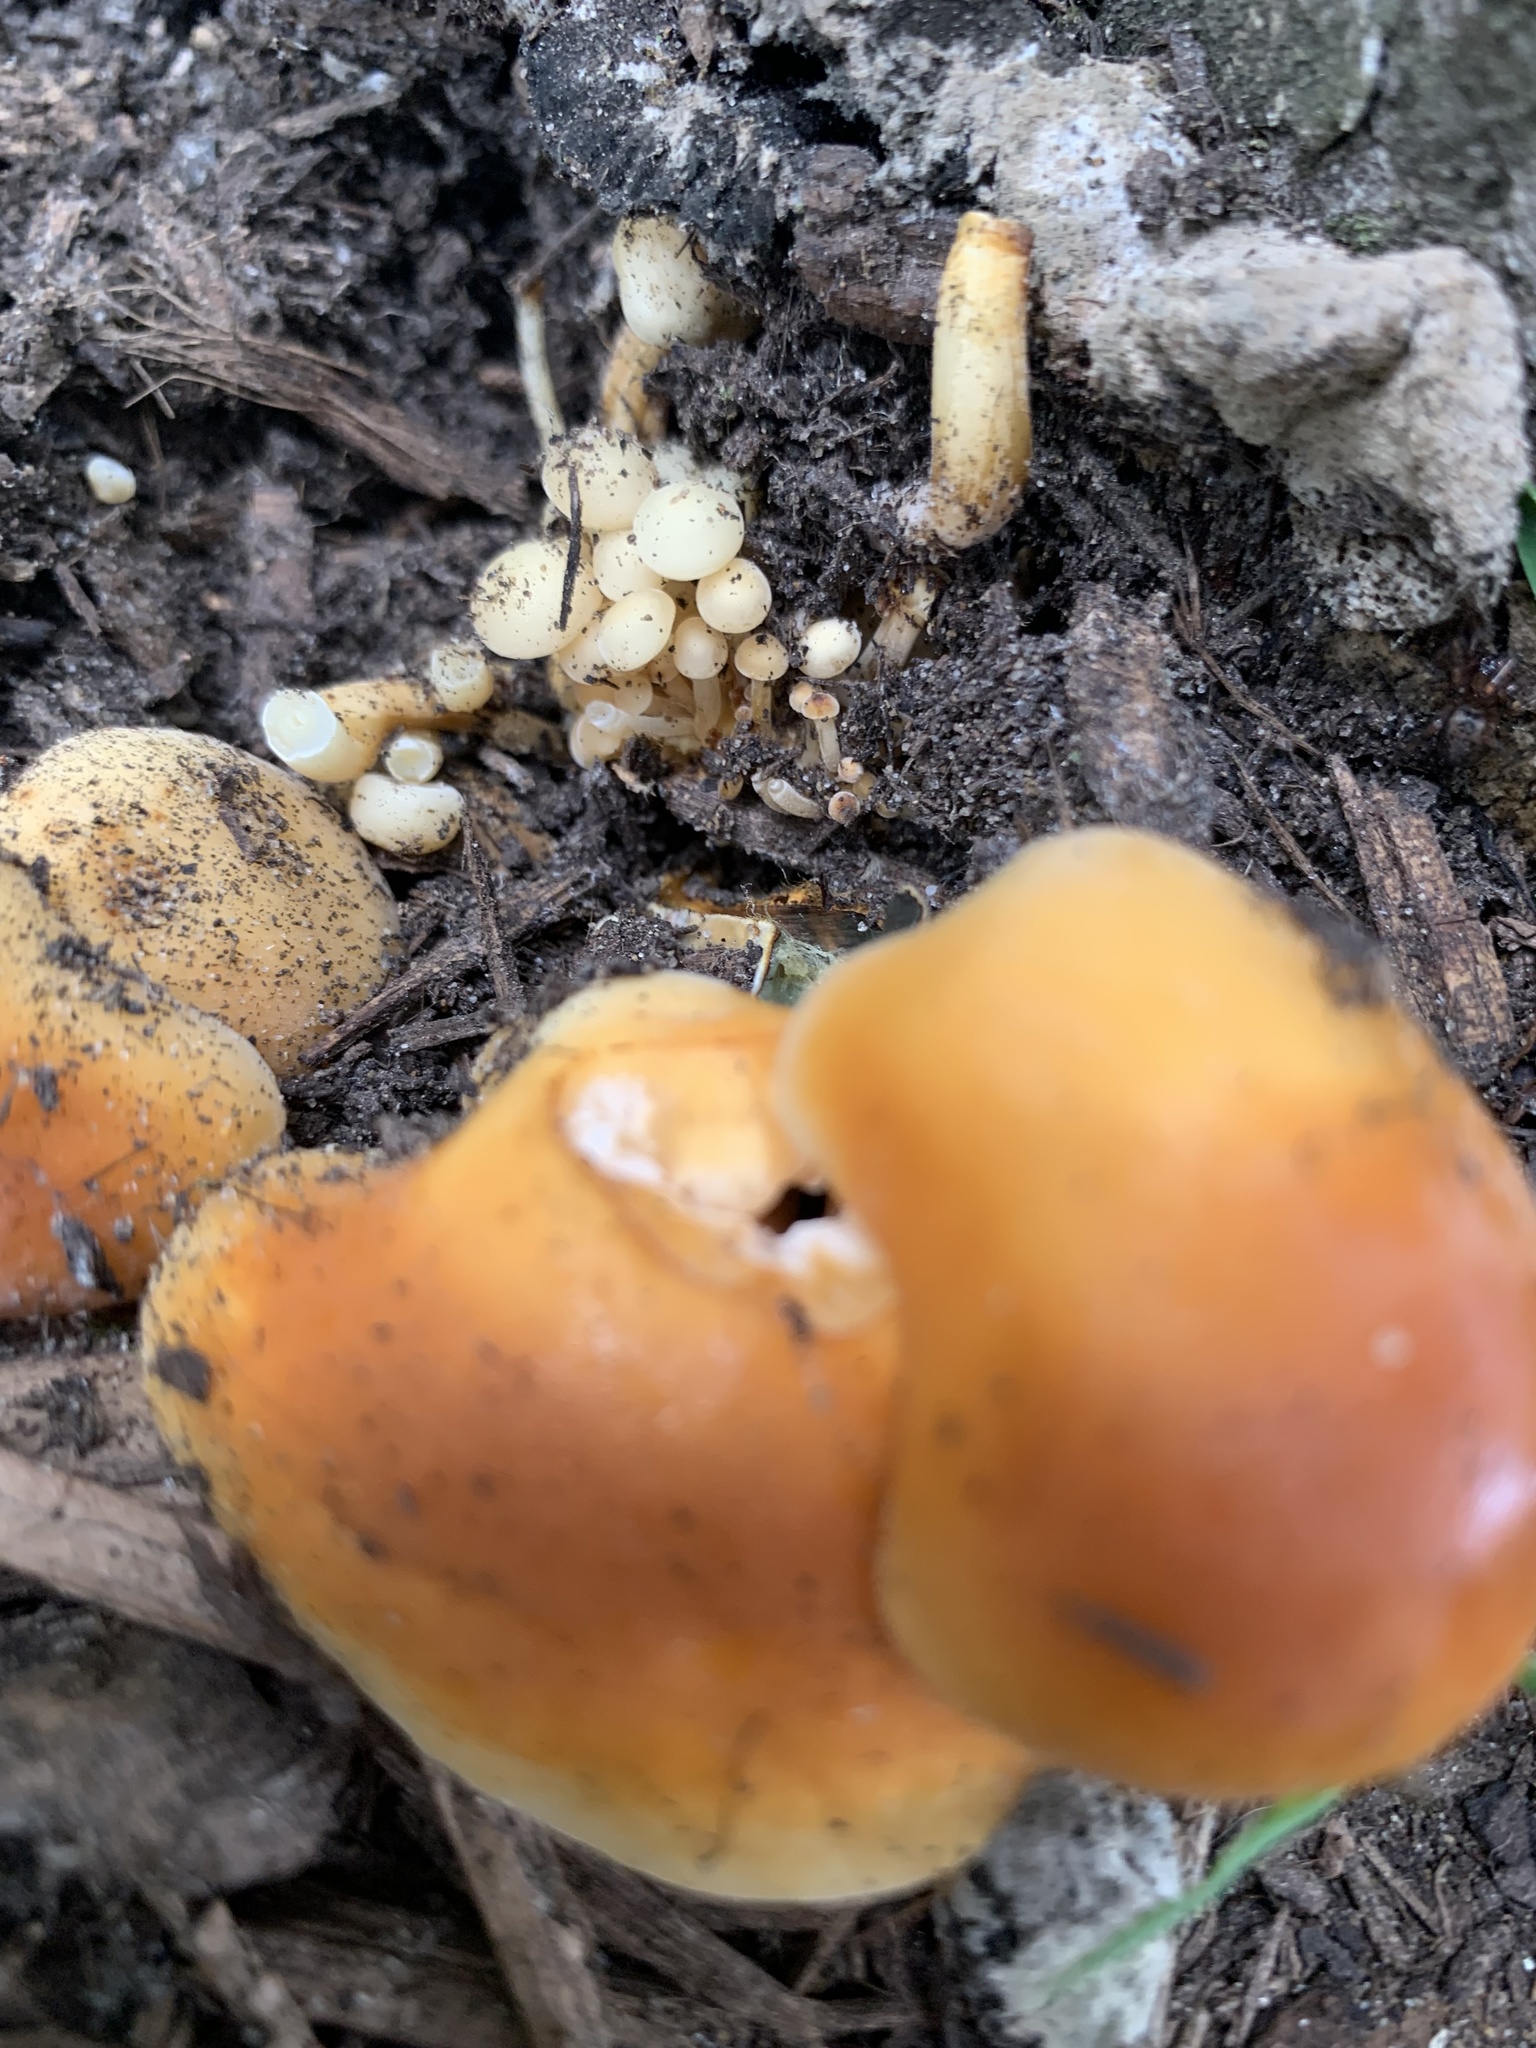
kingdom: Fungi
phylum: Basidiomycota
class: Agaricomycetes
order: Agaricales
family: Physalacriaceae
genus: Flammulina
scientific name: Flammulina velutipes
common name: Velvet shank
